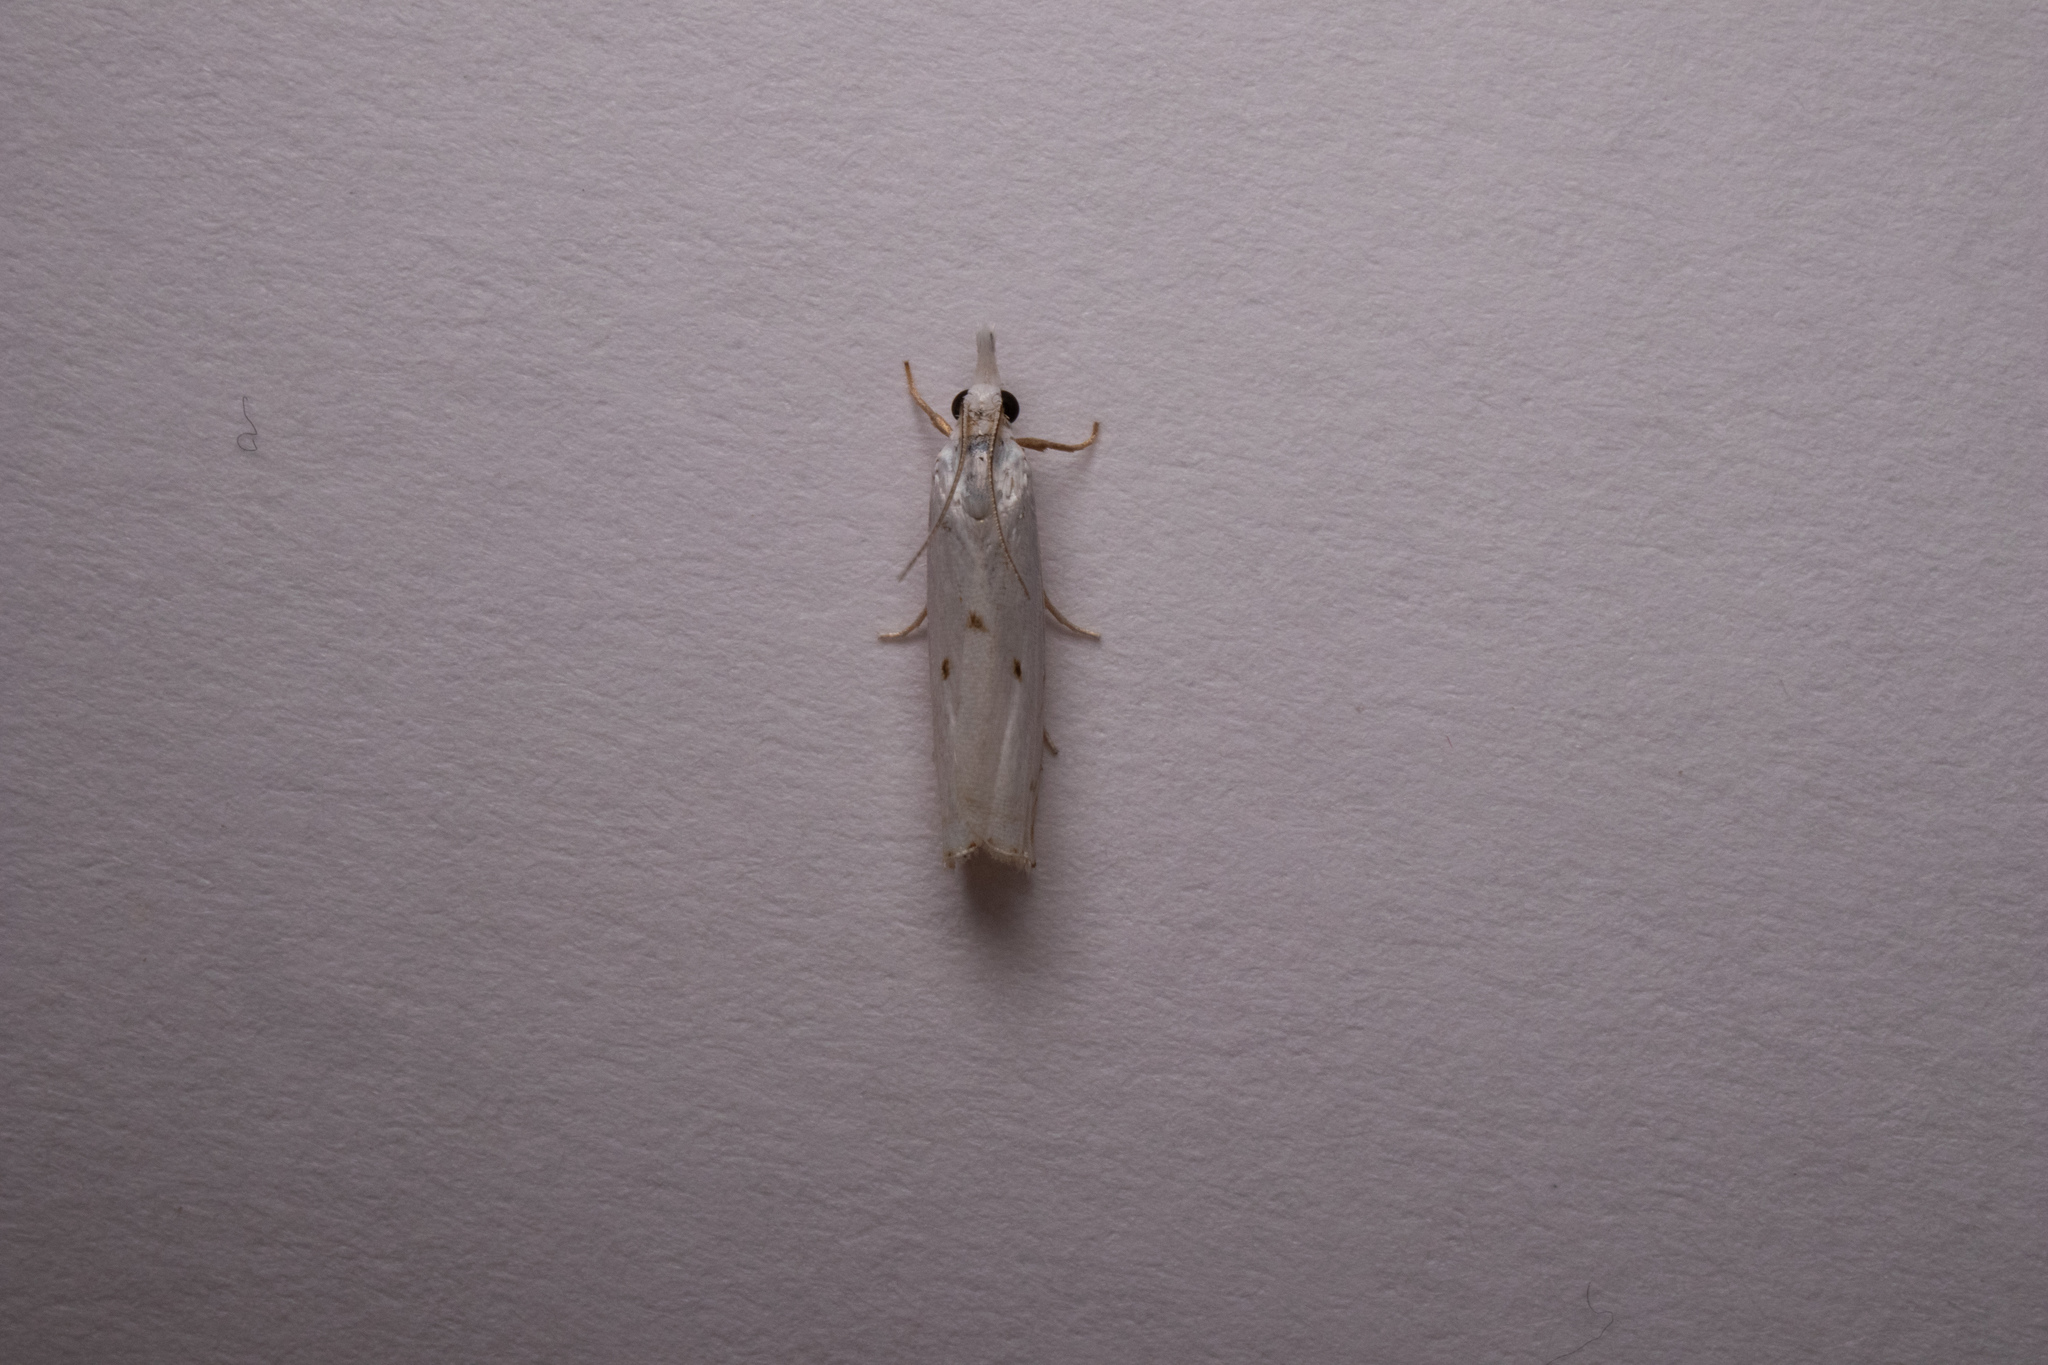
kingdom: Animalia
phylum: Arthropoda
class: Insecta
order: Lepidoptera
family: Crambidae
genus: Microcrambus
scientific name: Microcrambus biguttellus
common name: Gold-stripe grass-veneer moth
